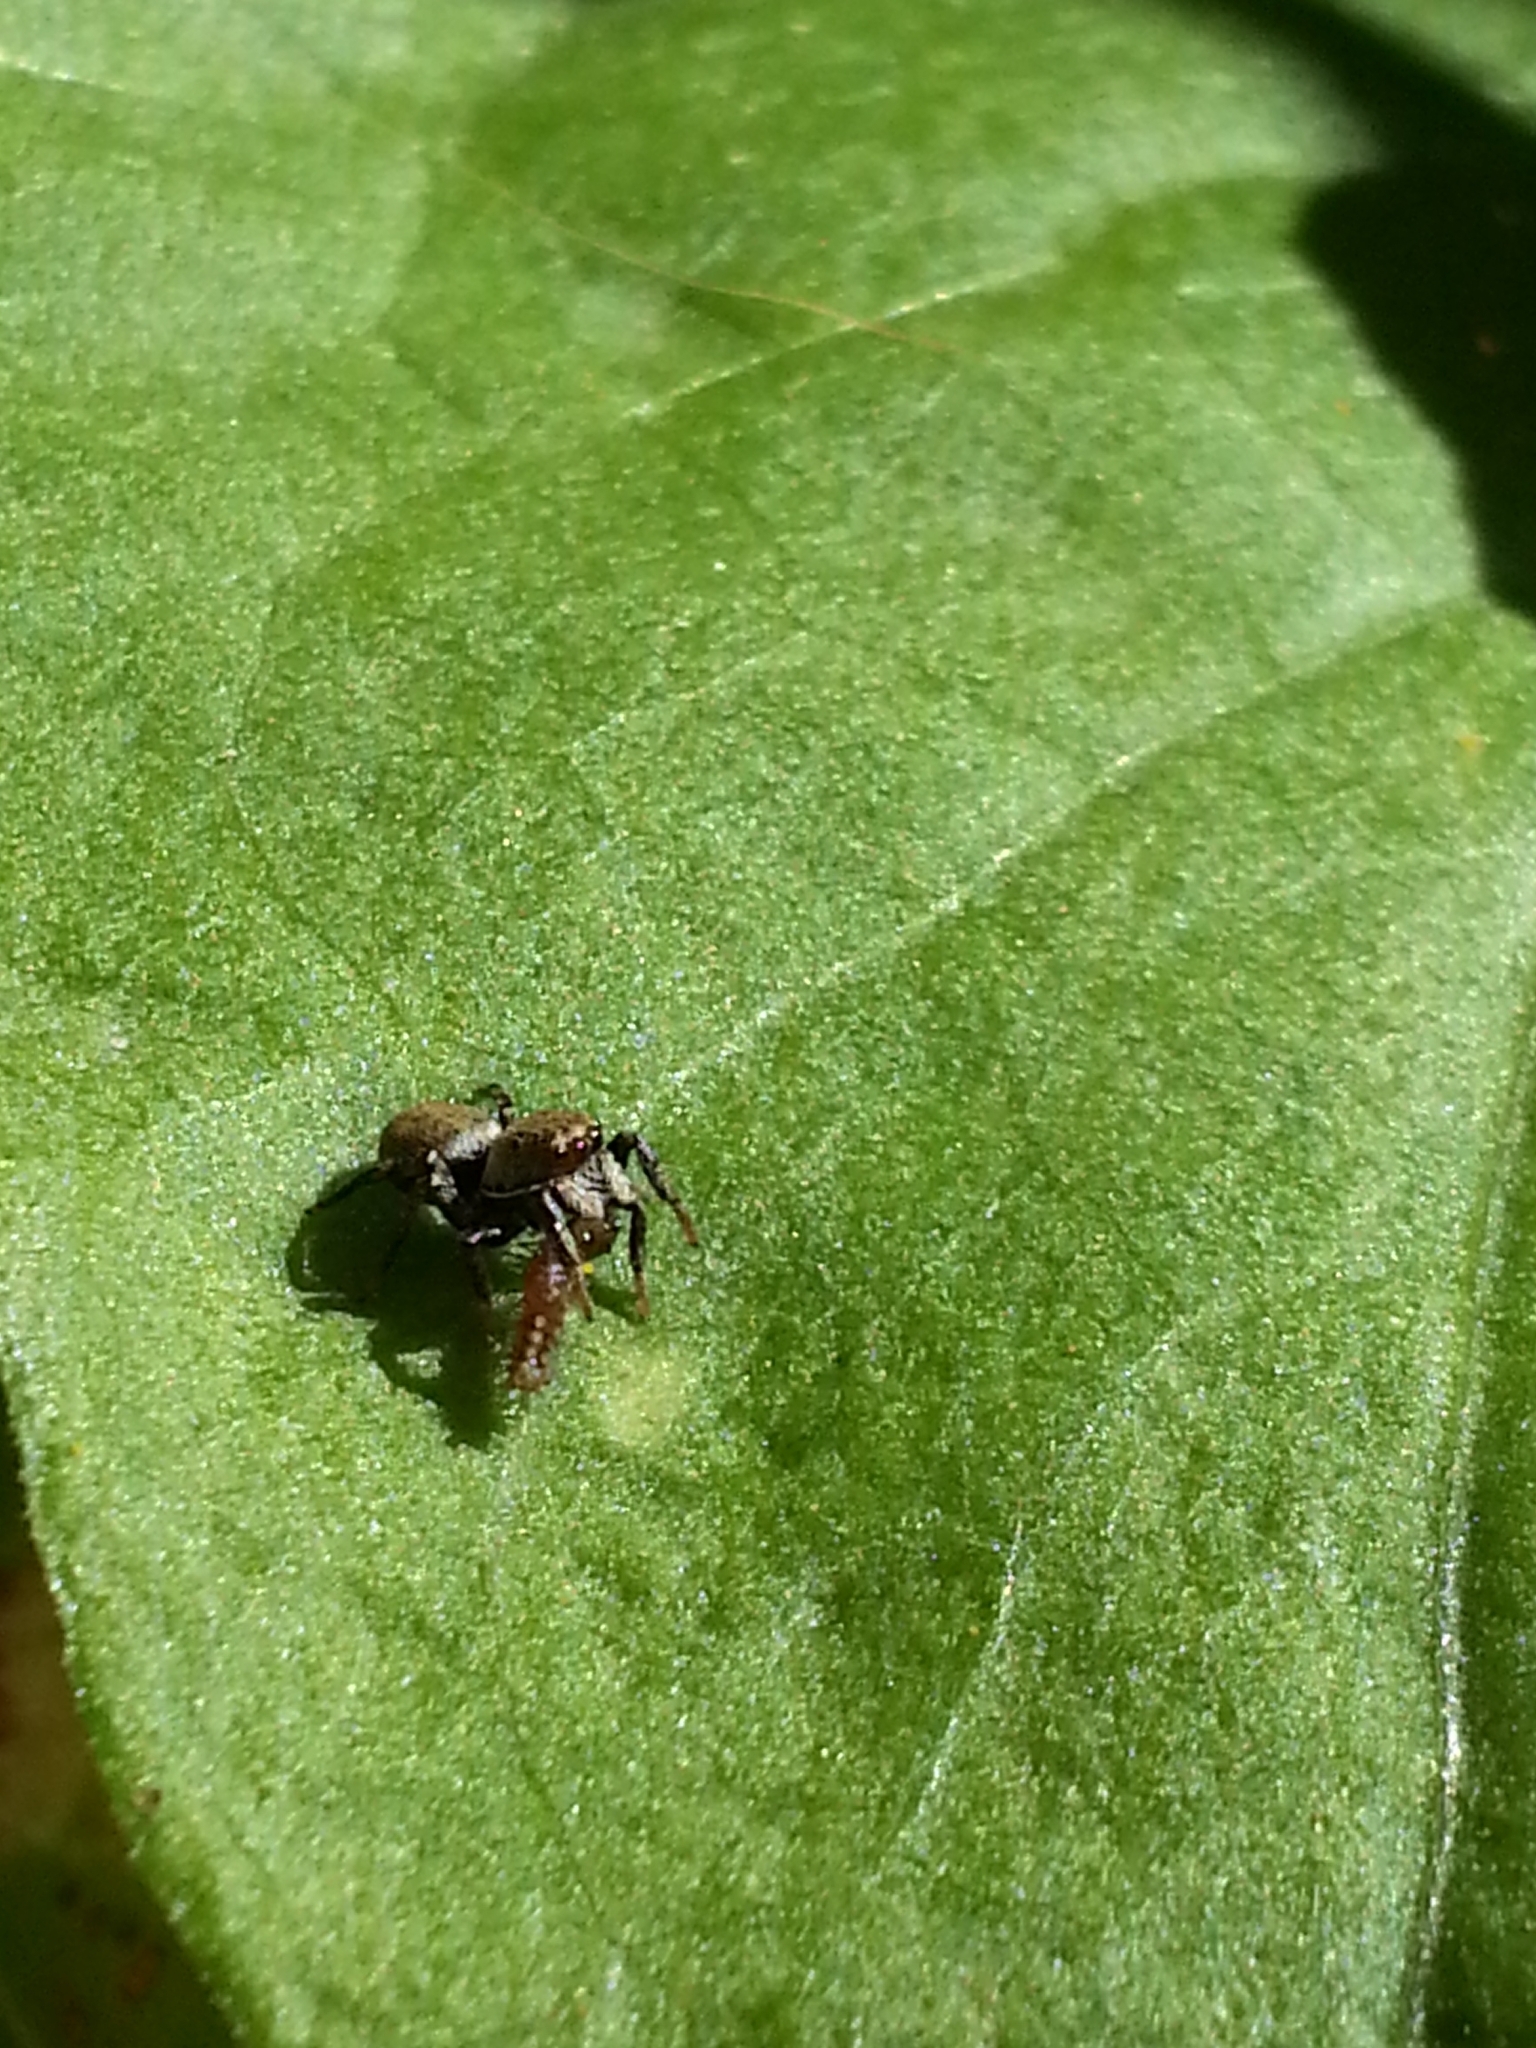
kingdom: Animalia
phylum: Arthropoda
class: Arachnida
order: Araneae
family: Salticidae
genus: Phiale
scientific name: Phiale roburifoliata
